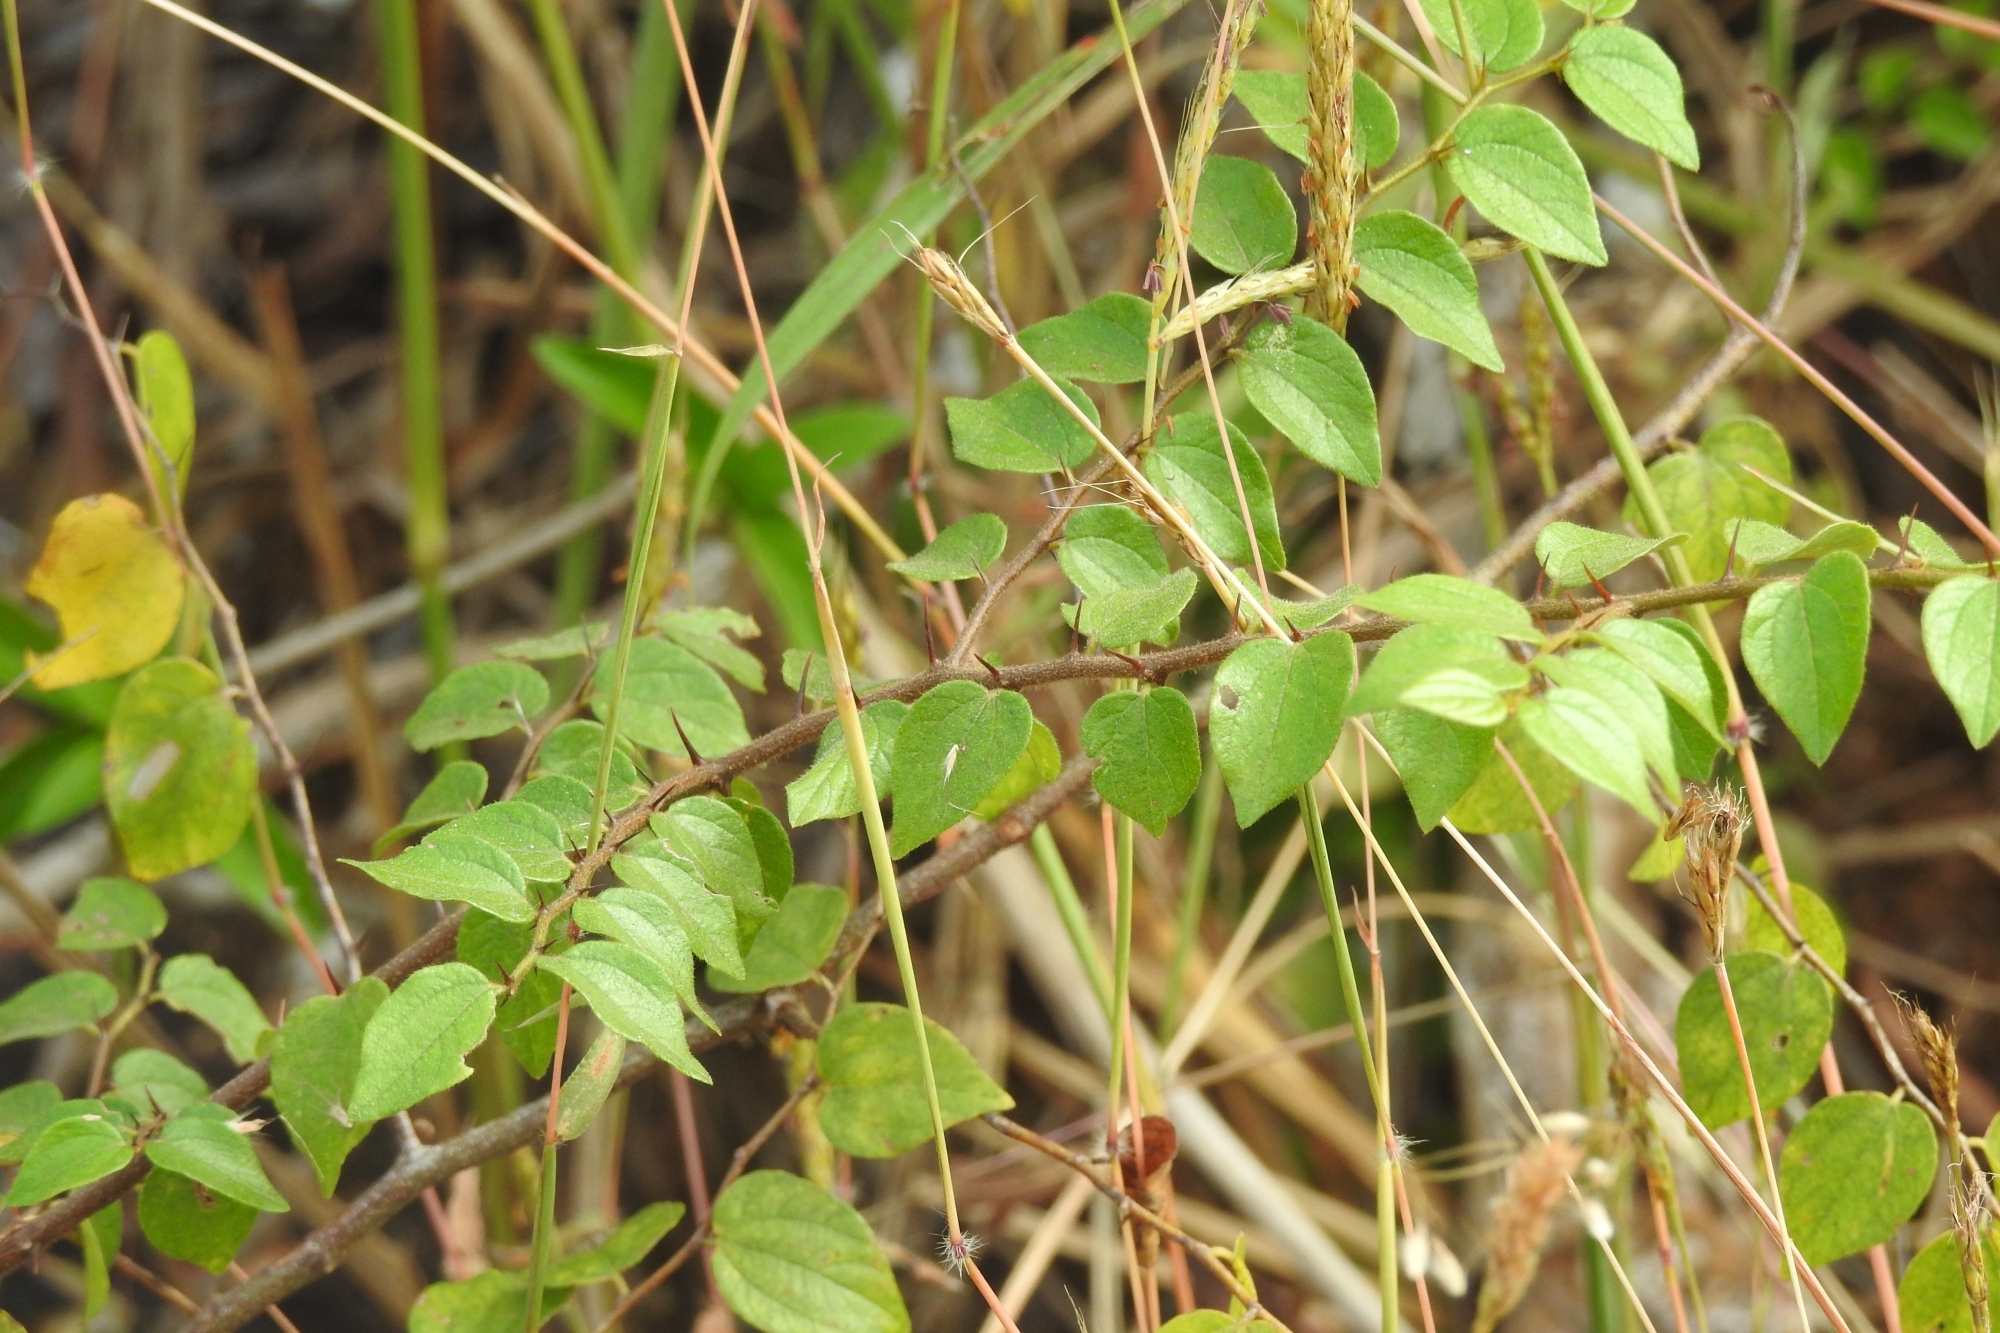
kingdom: Plantae
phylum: Tracheophyta
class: Magnoliopsida
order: Rosales
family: Rhamnaceae
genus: Ziziphus
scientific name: Ziziphus oenopolia
